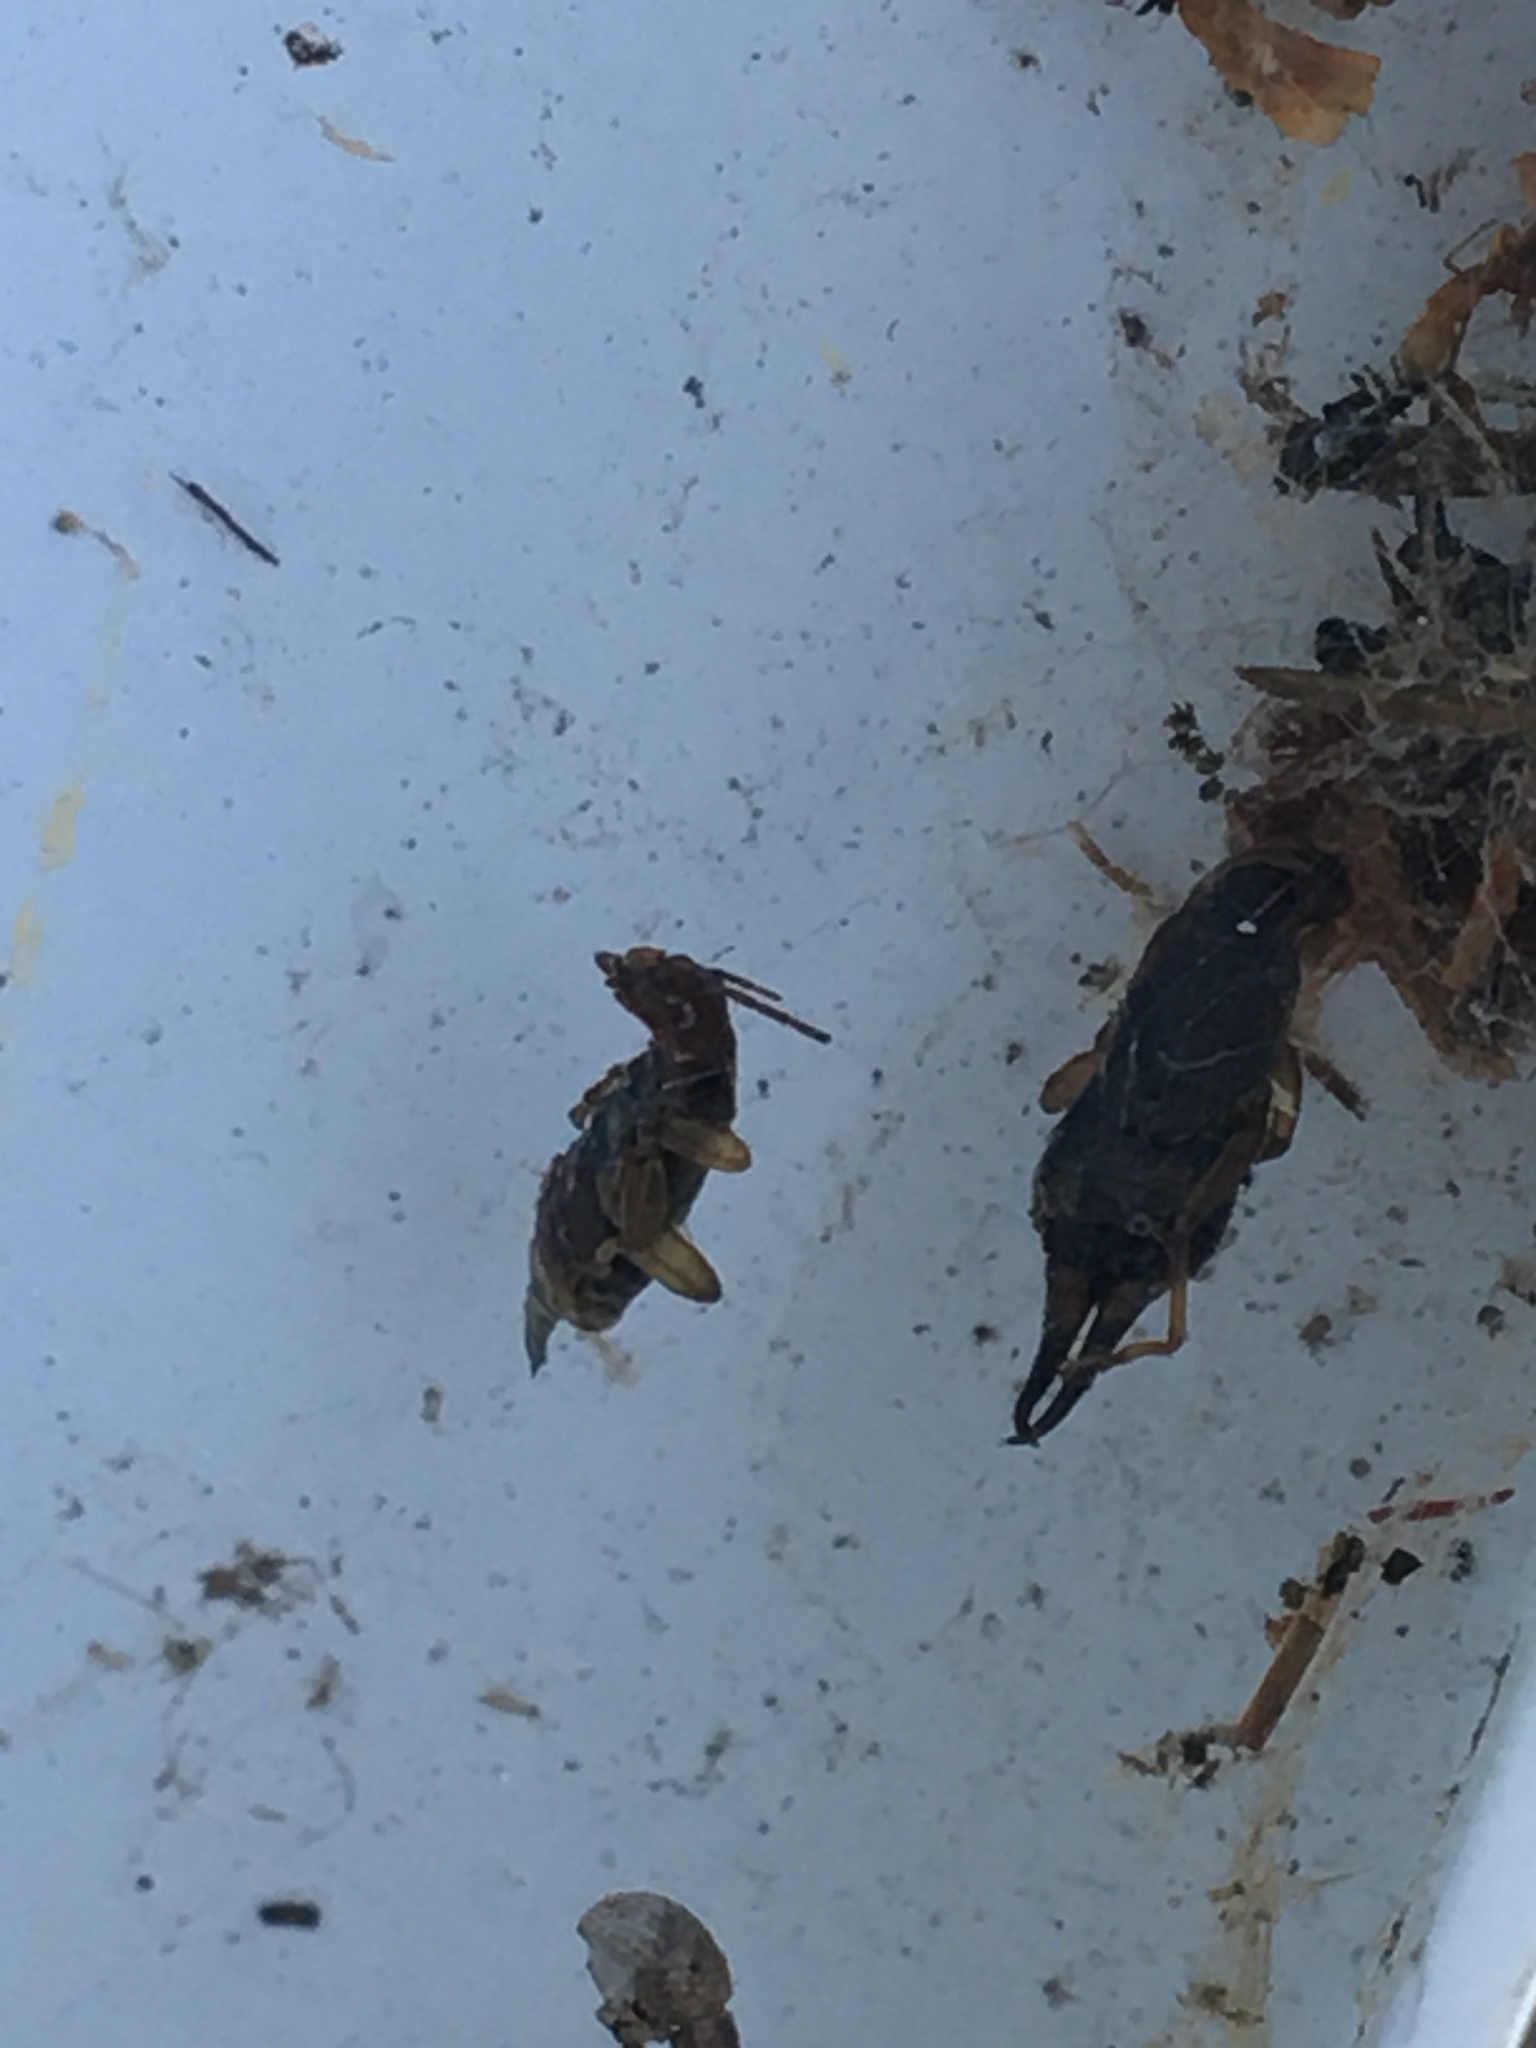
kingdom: Animalia
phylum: Arthropoda
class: Insecta
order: Dermaptera
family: Forficulidae
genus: Forficula
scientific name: Forficula
